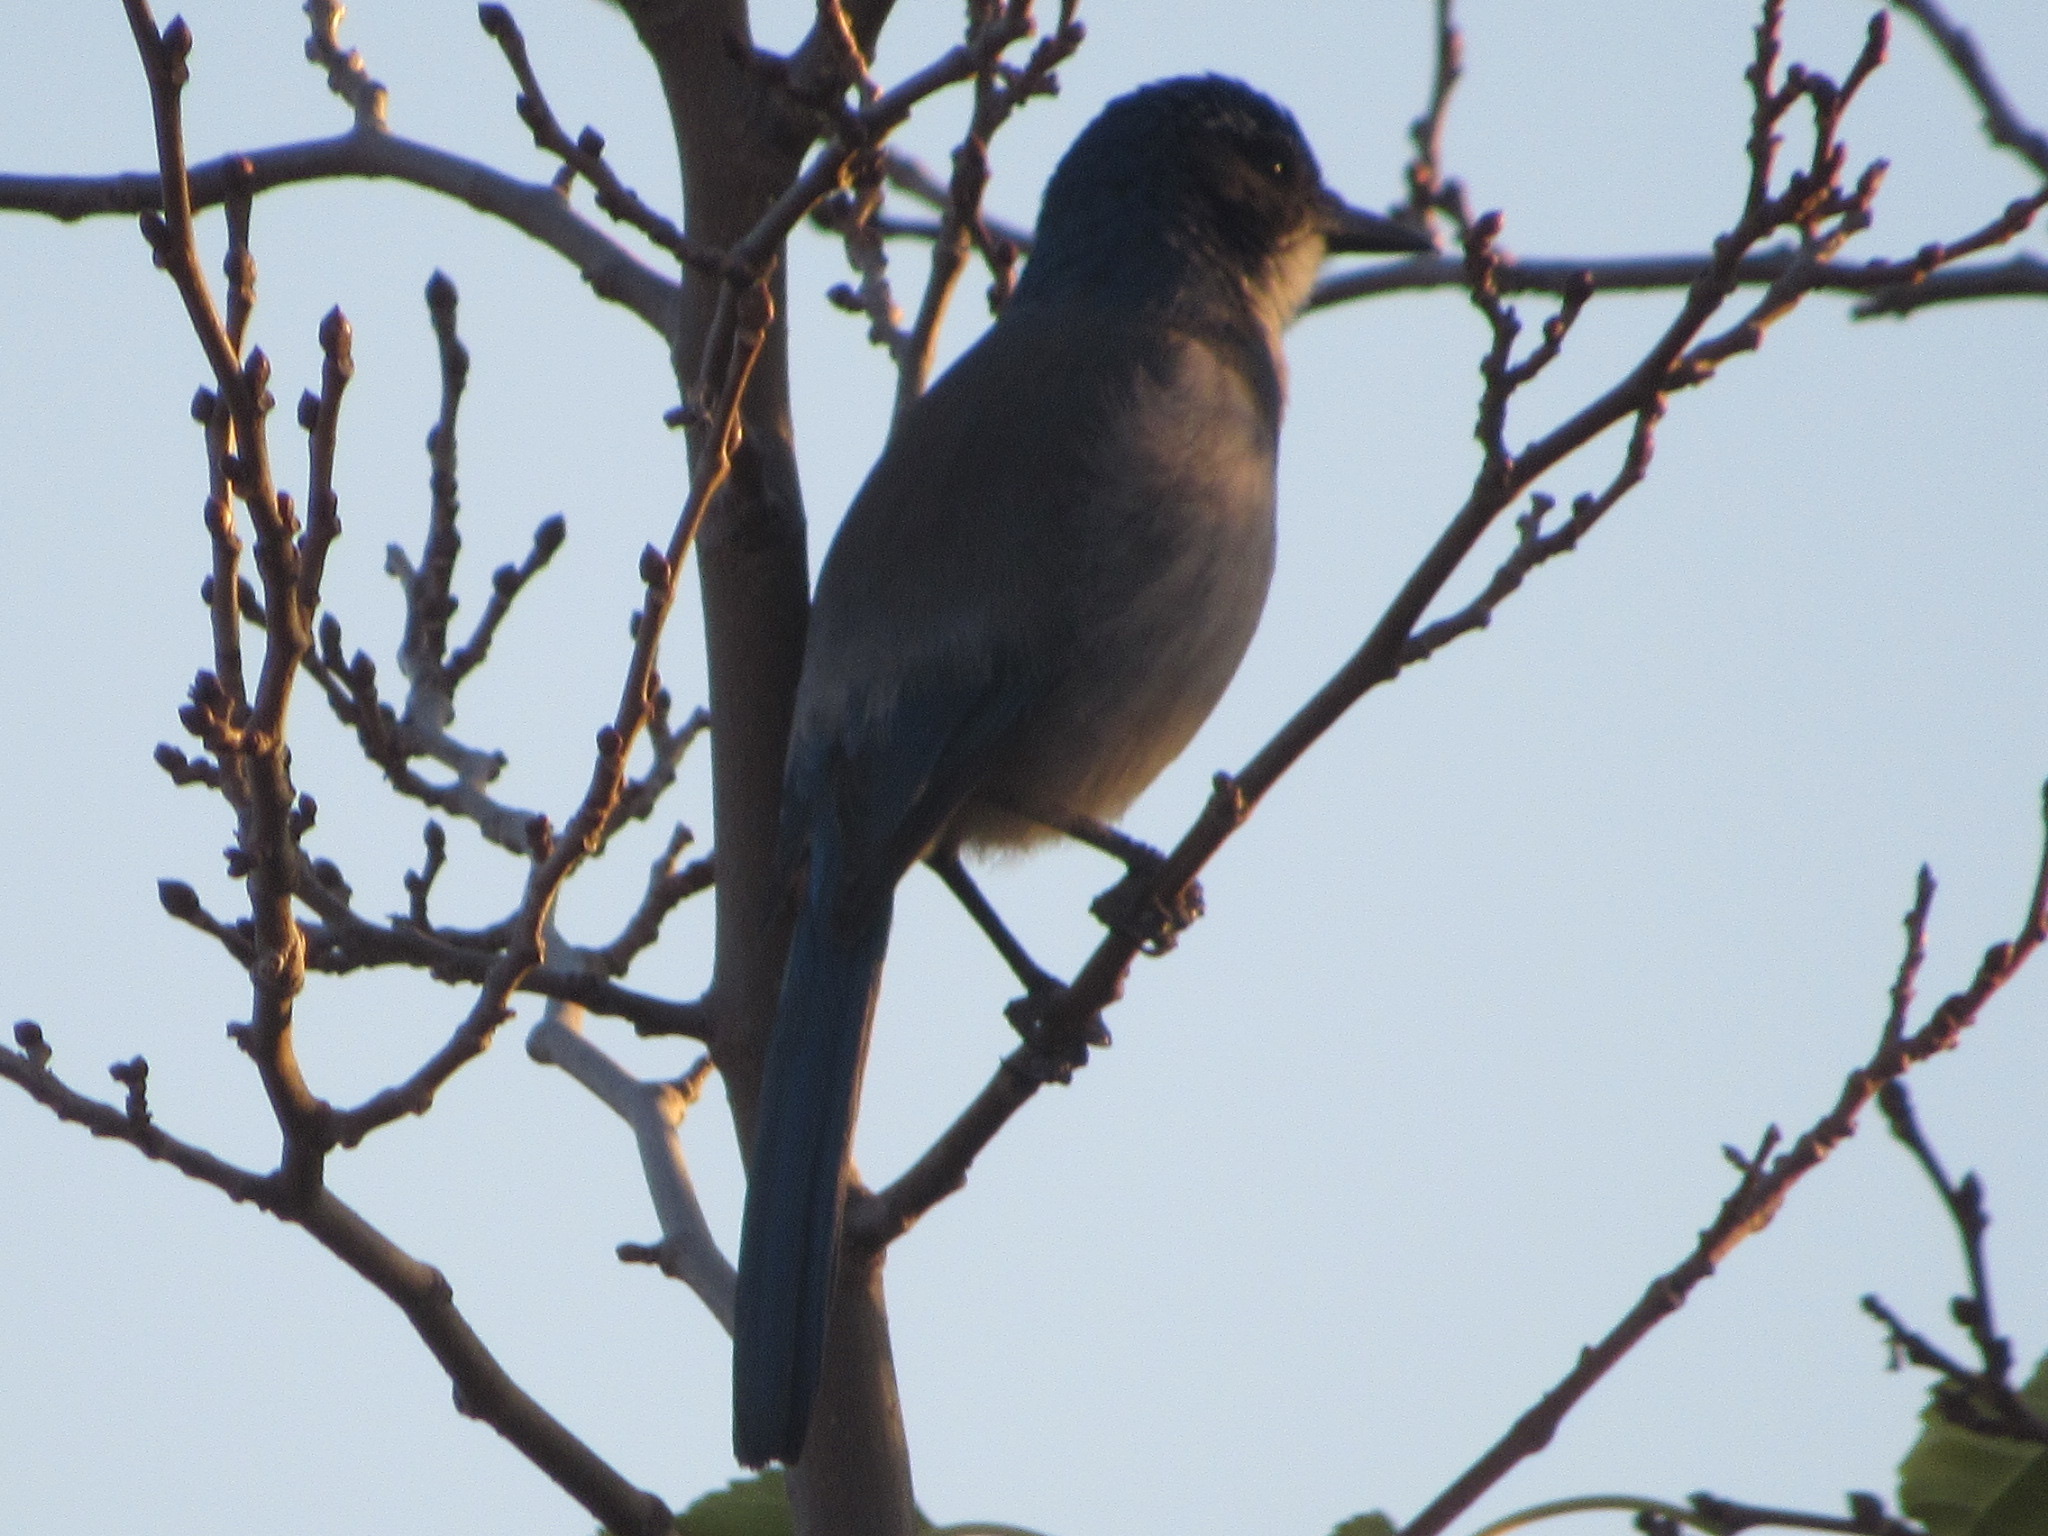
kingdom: Animalia
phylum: Chordata
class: Aves
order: Passeriformes
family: Corvidae
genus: Aphelocoma
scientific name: Aphelocoma californica
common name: California scrub-jay
